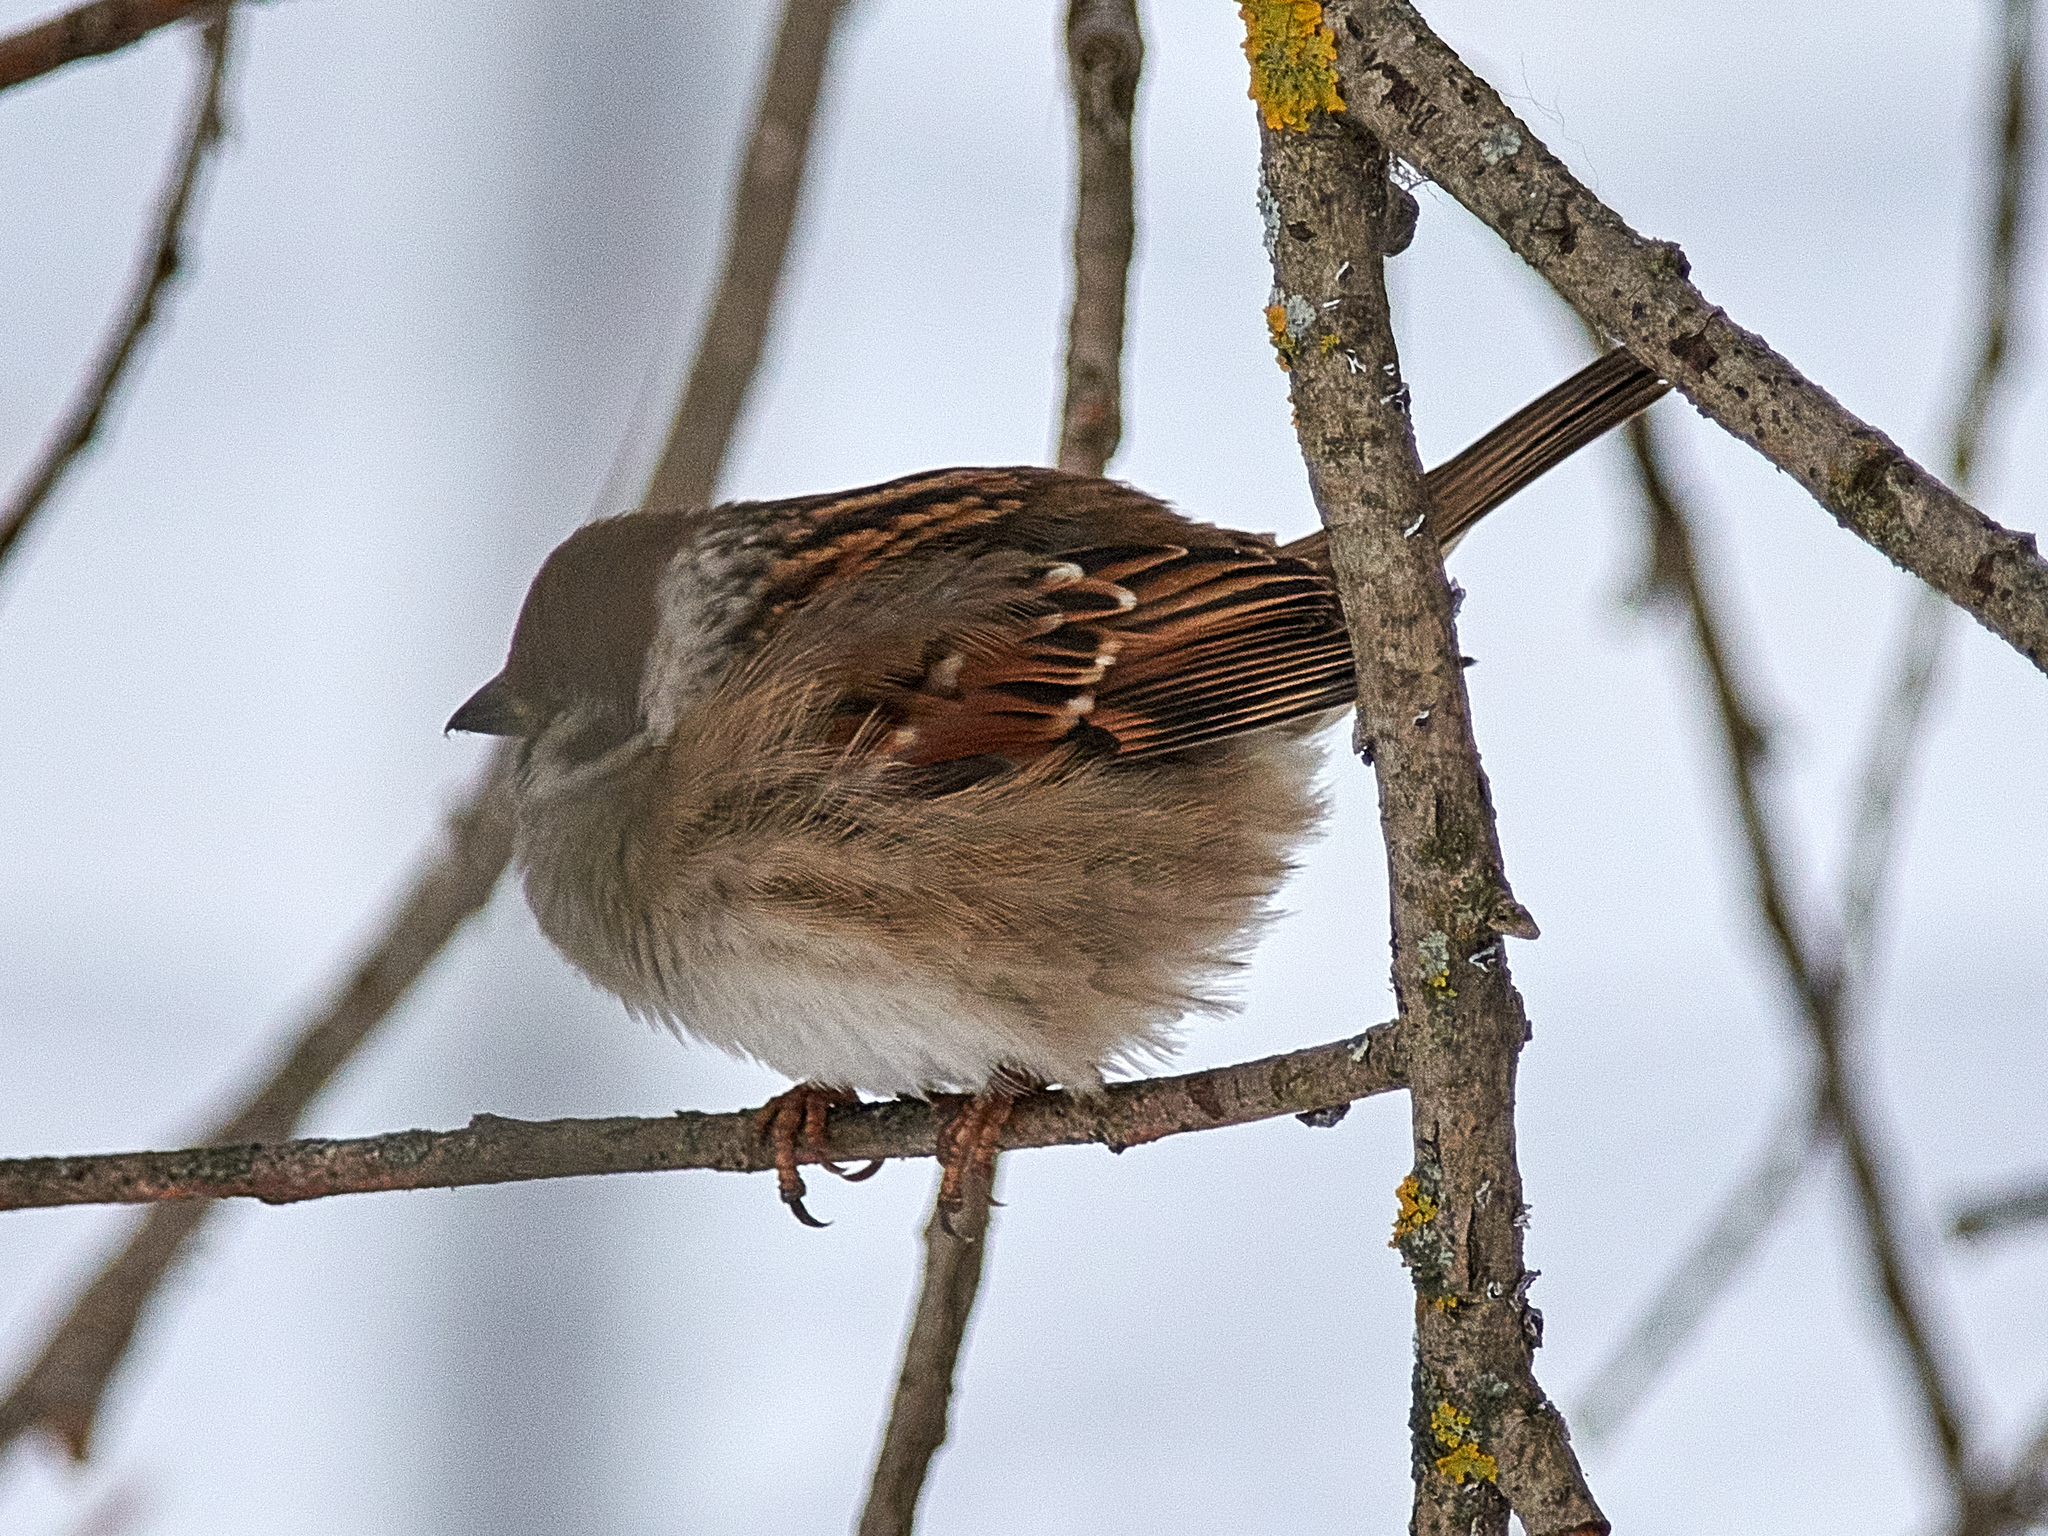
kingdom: Animalia
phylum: Chordata
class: Aves
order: Passeriformes
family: Passeridae
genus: Passer
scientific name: Passer montanus
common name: Eurasian tree sparrow
